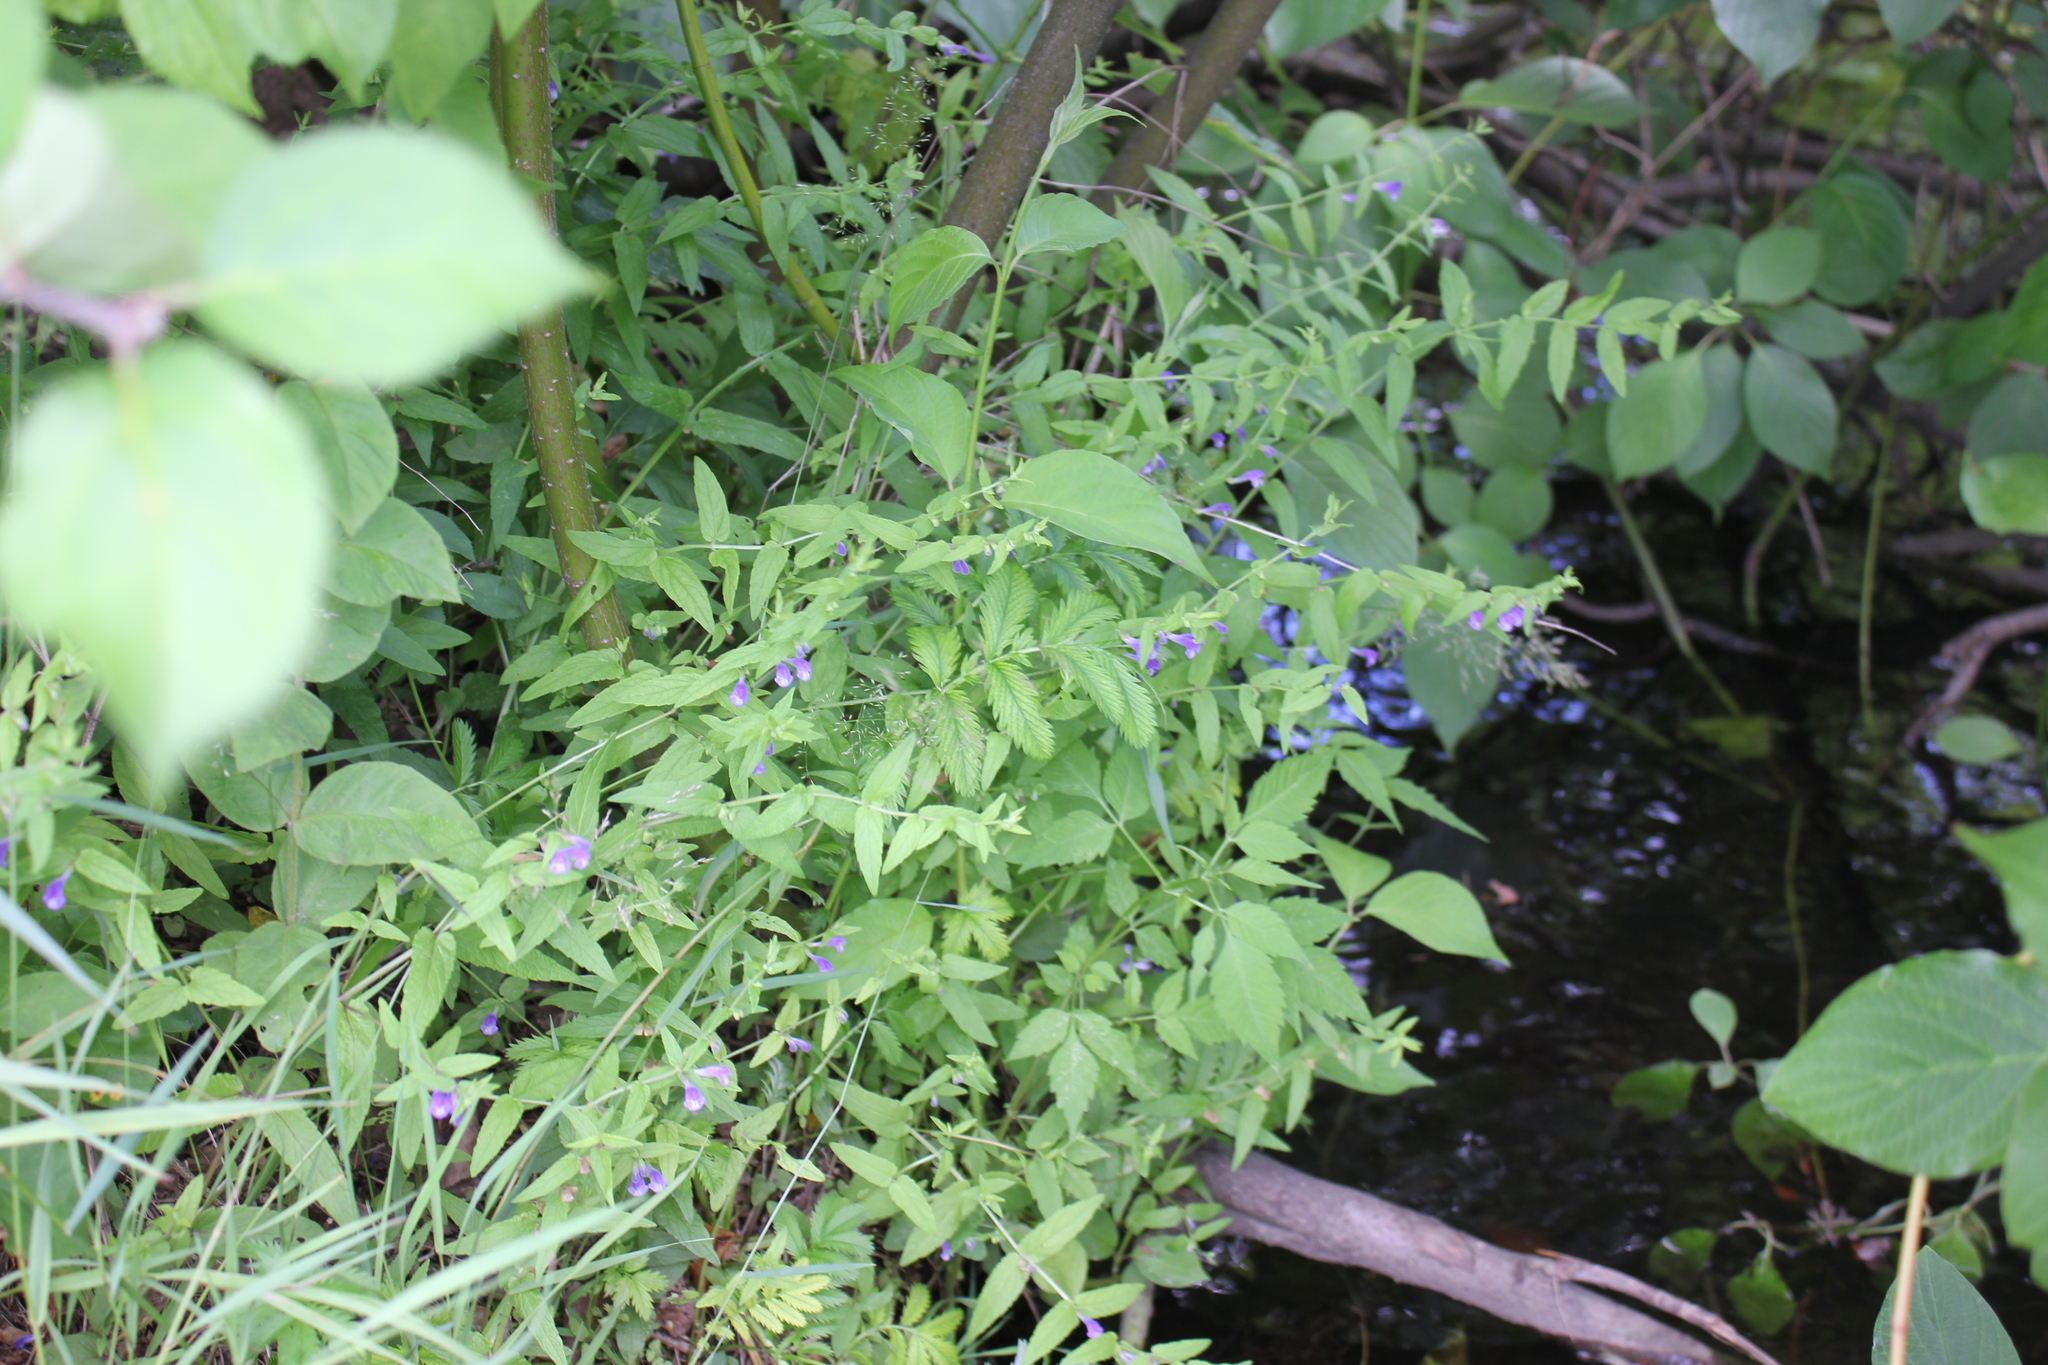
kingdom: Plantae
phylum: Tracheophyta
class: Magnoliopsida
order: Lamiales
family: Lamiaceae
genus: Scutellaria
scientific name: Scutellaria galericulata
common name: Skullcap
